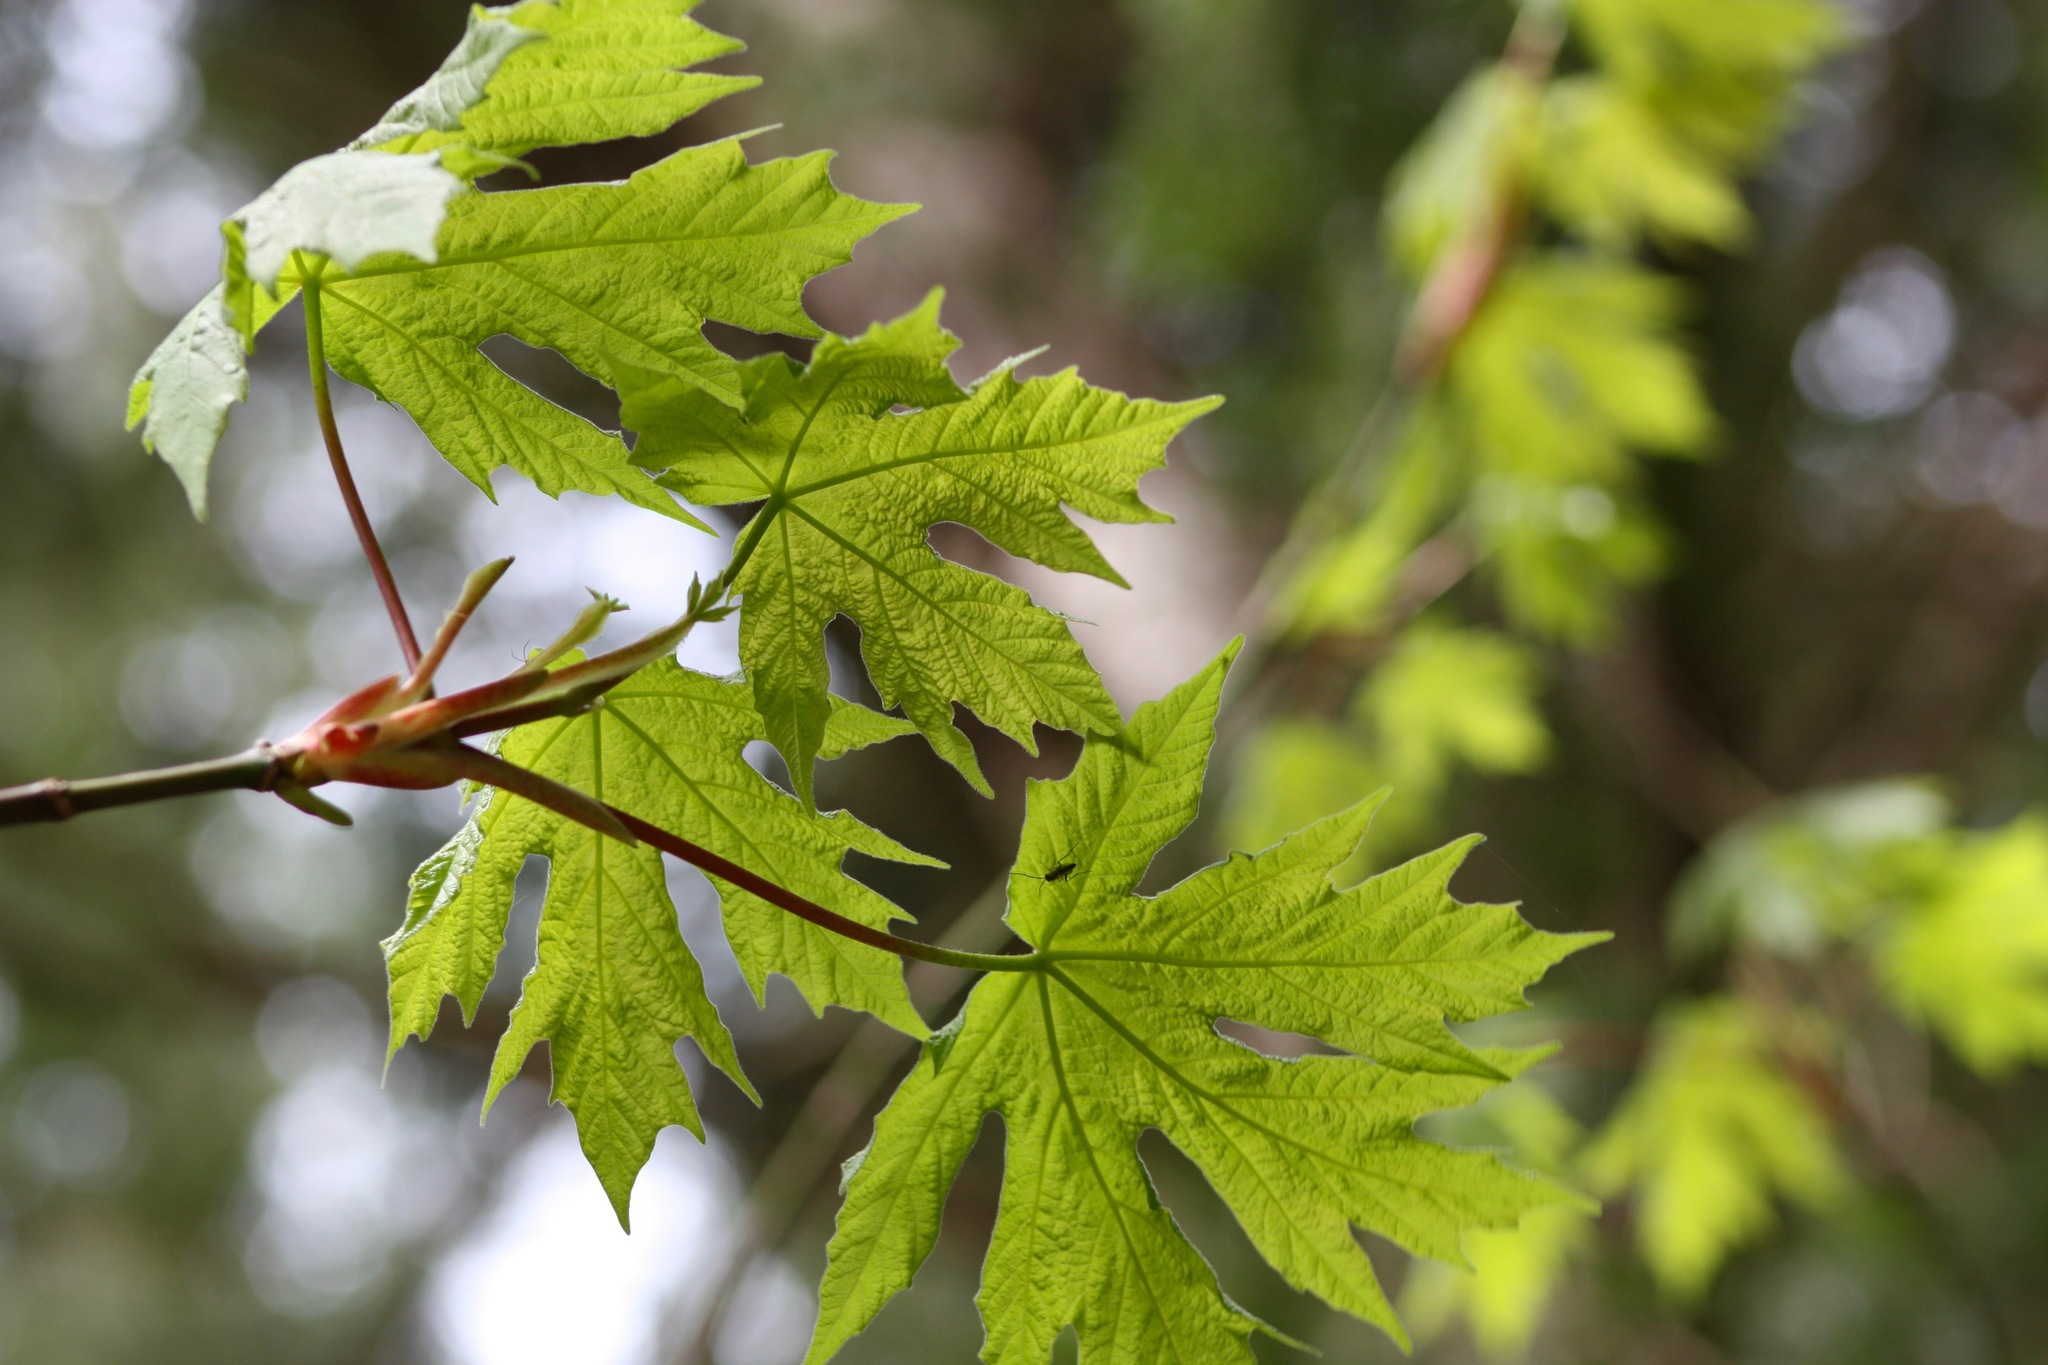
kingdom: Plantae
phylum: Tracheophyta
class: Magnoliopsida
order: Sapindales
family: Sapindaceae
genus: Acer
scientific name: Acer macrophyllum
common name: Oregon maple
